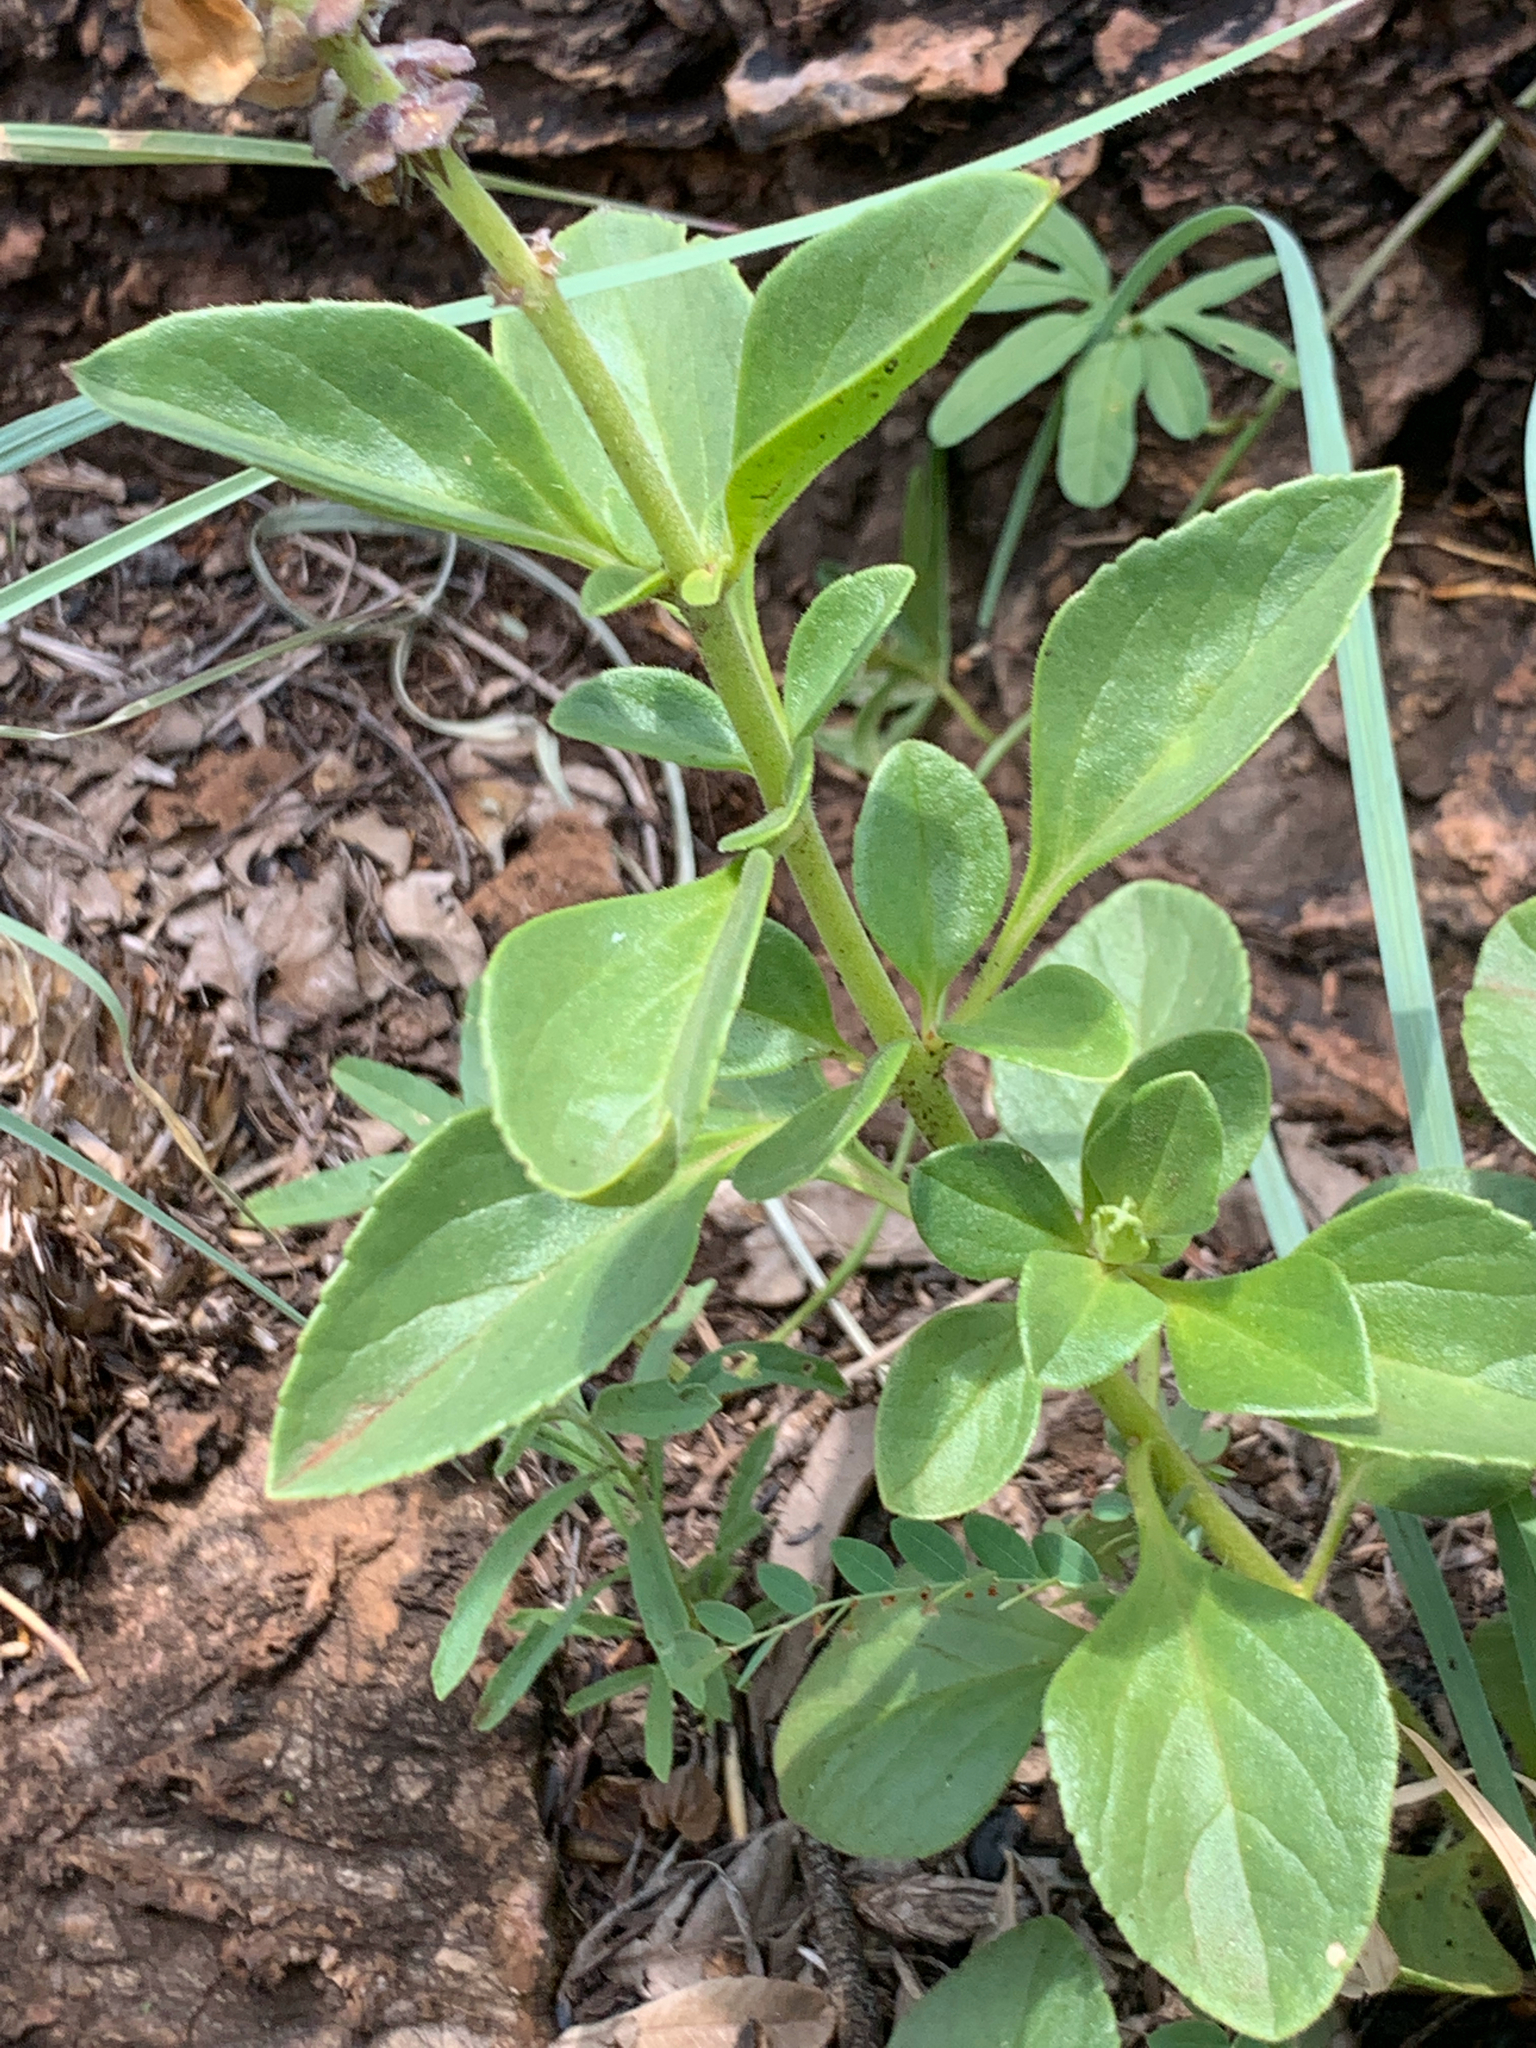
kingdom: Plantae
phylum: Tracheophyta
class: Magnoliopsida
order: Lamiales
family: Lamiaceae
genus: Coleus
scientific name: Coleus pentheri
